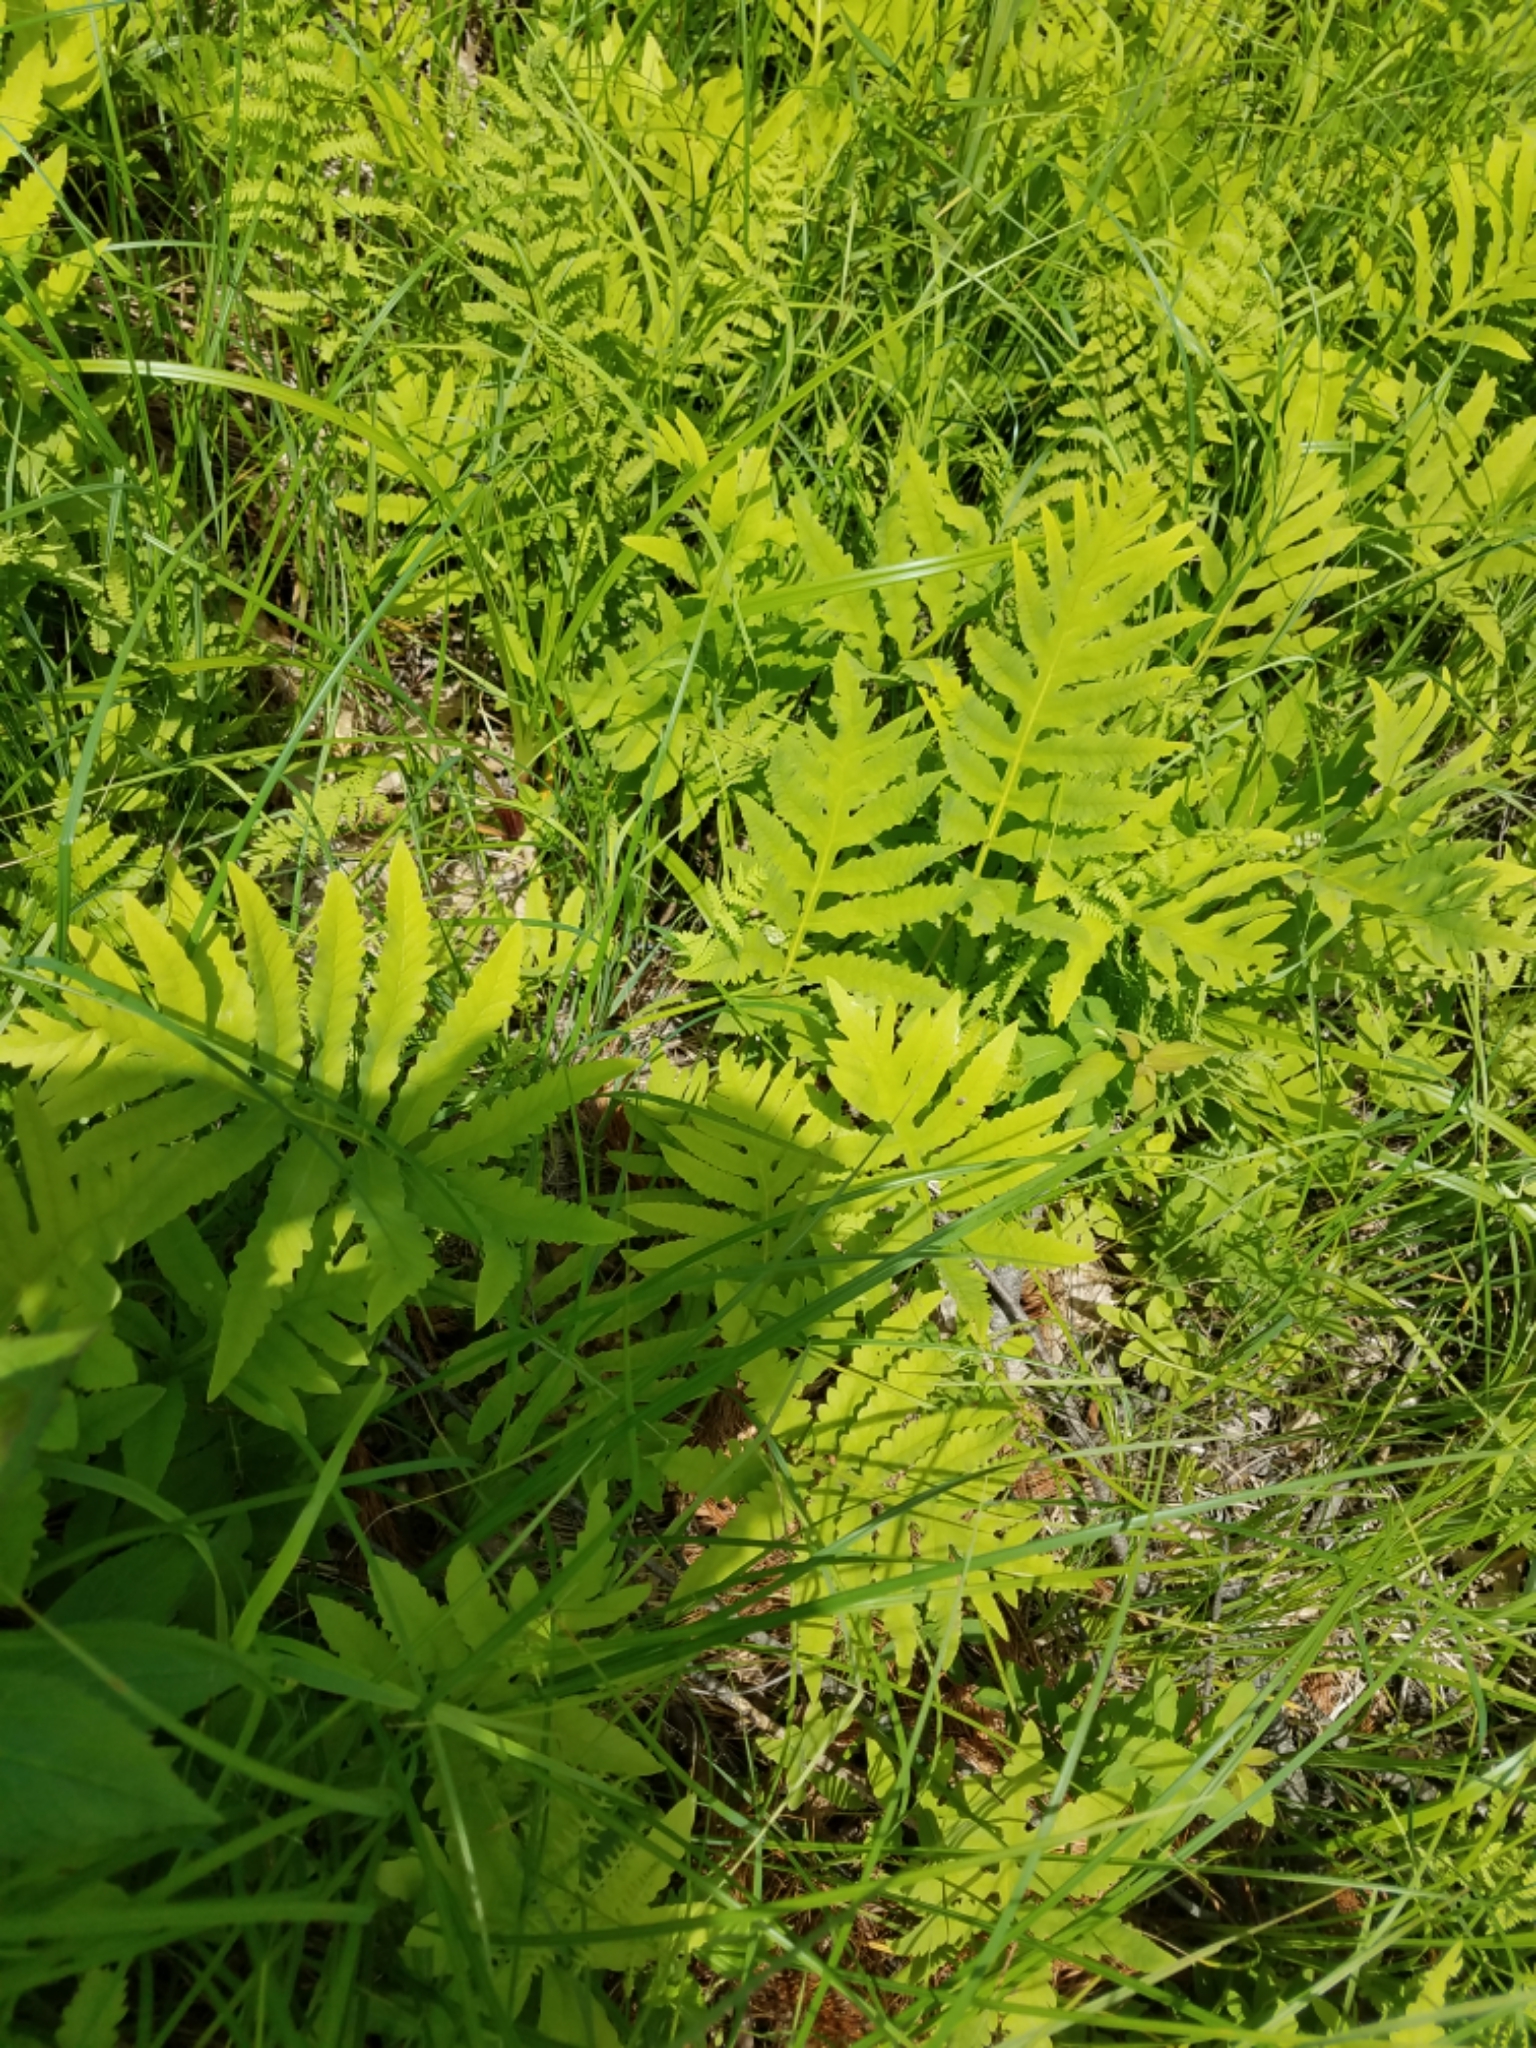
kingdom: Plantae
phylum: Tracheophyta
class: Polypodiopsida
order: Polypodiales
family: Onocleaceae
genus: Onoclea
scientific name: Onoclea sensibilis
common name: Sensitive fern
